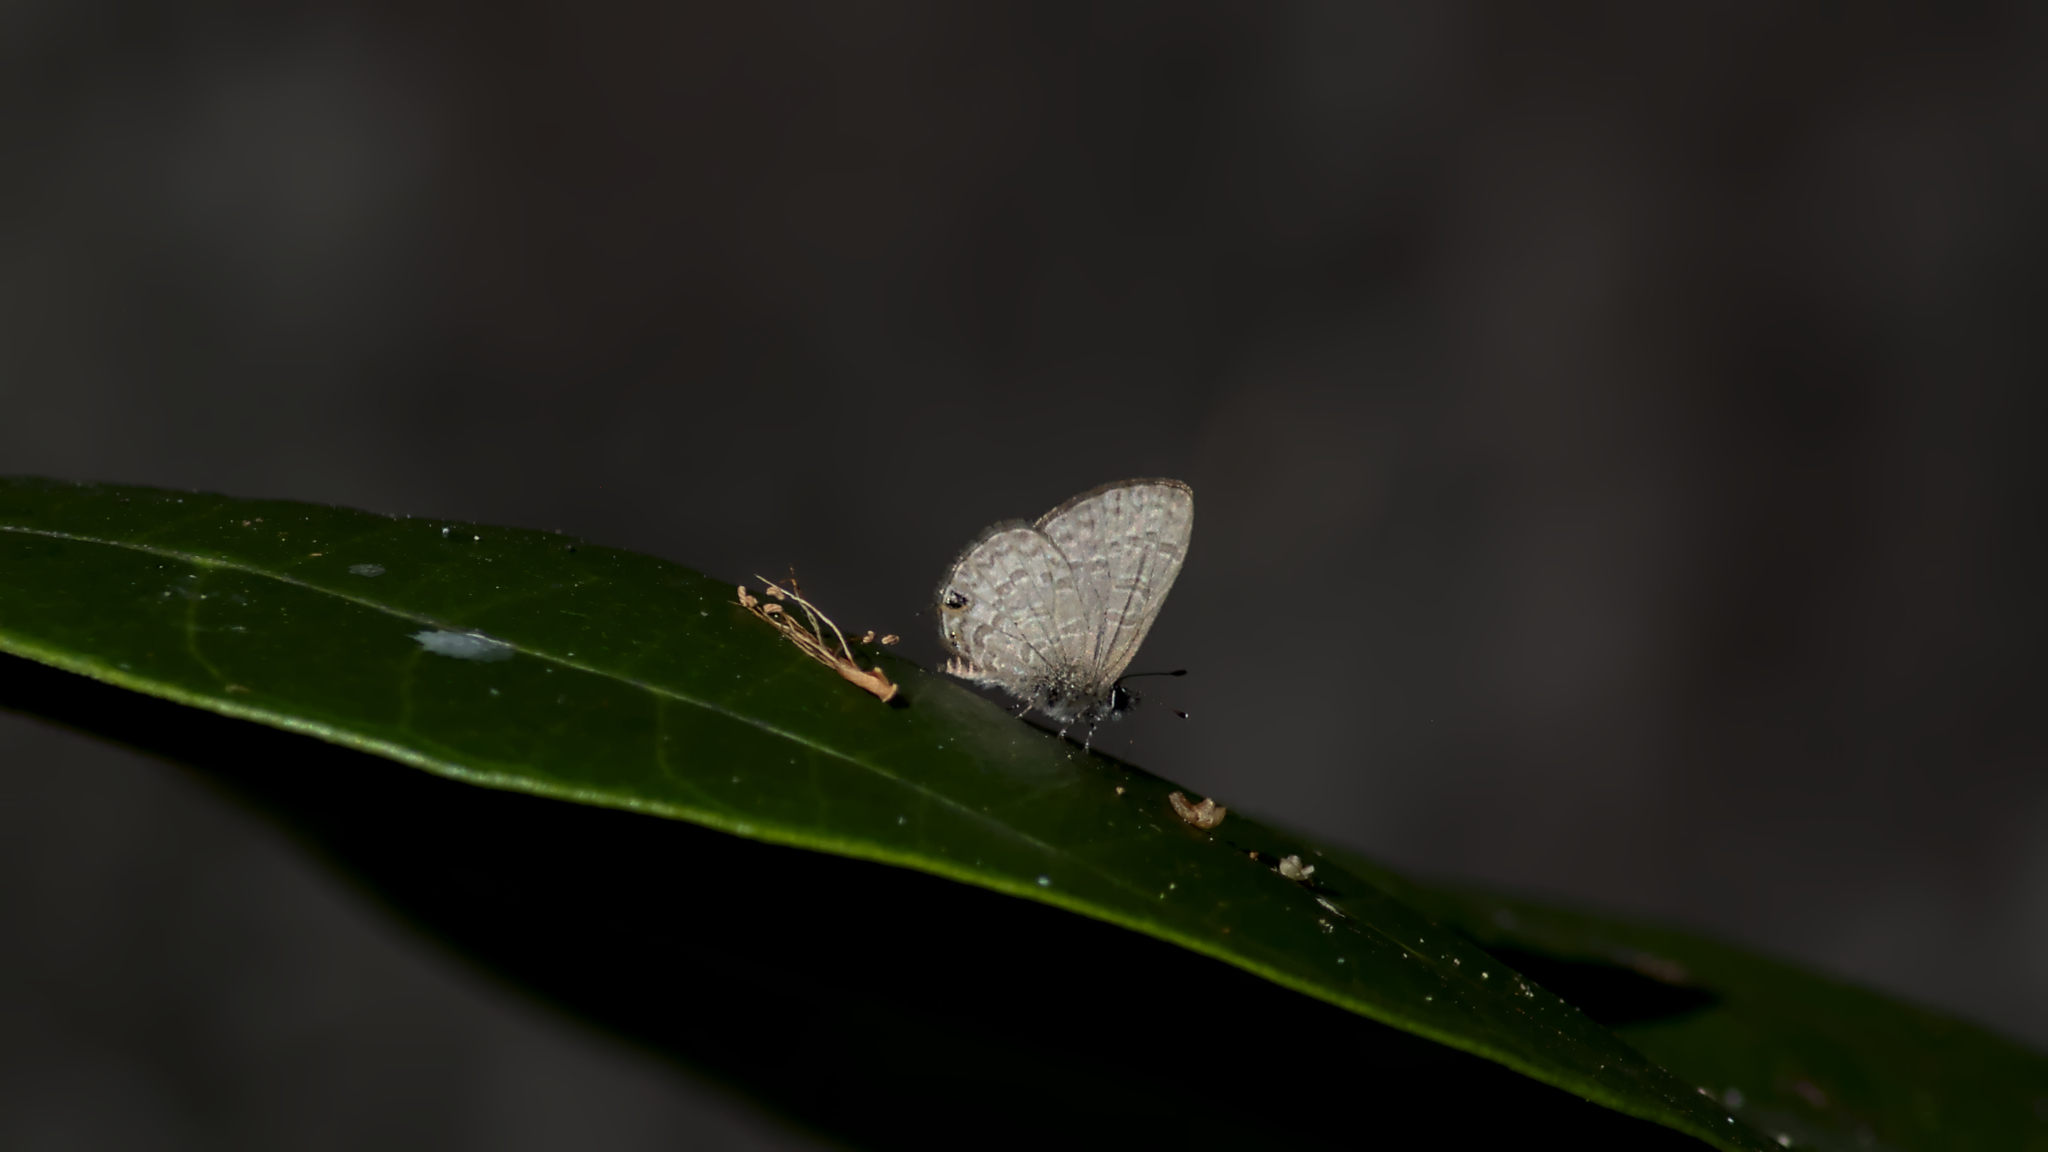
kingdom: Animalia
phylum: Arthropoda
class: Insecta
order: Lepidoptera
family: Lycaenidae
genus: Prosotas
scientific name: Prosotas nora
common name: Common line blue
